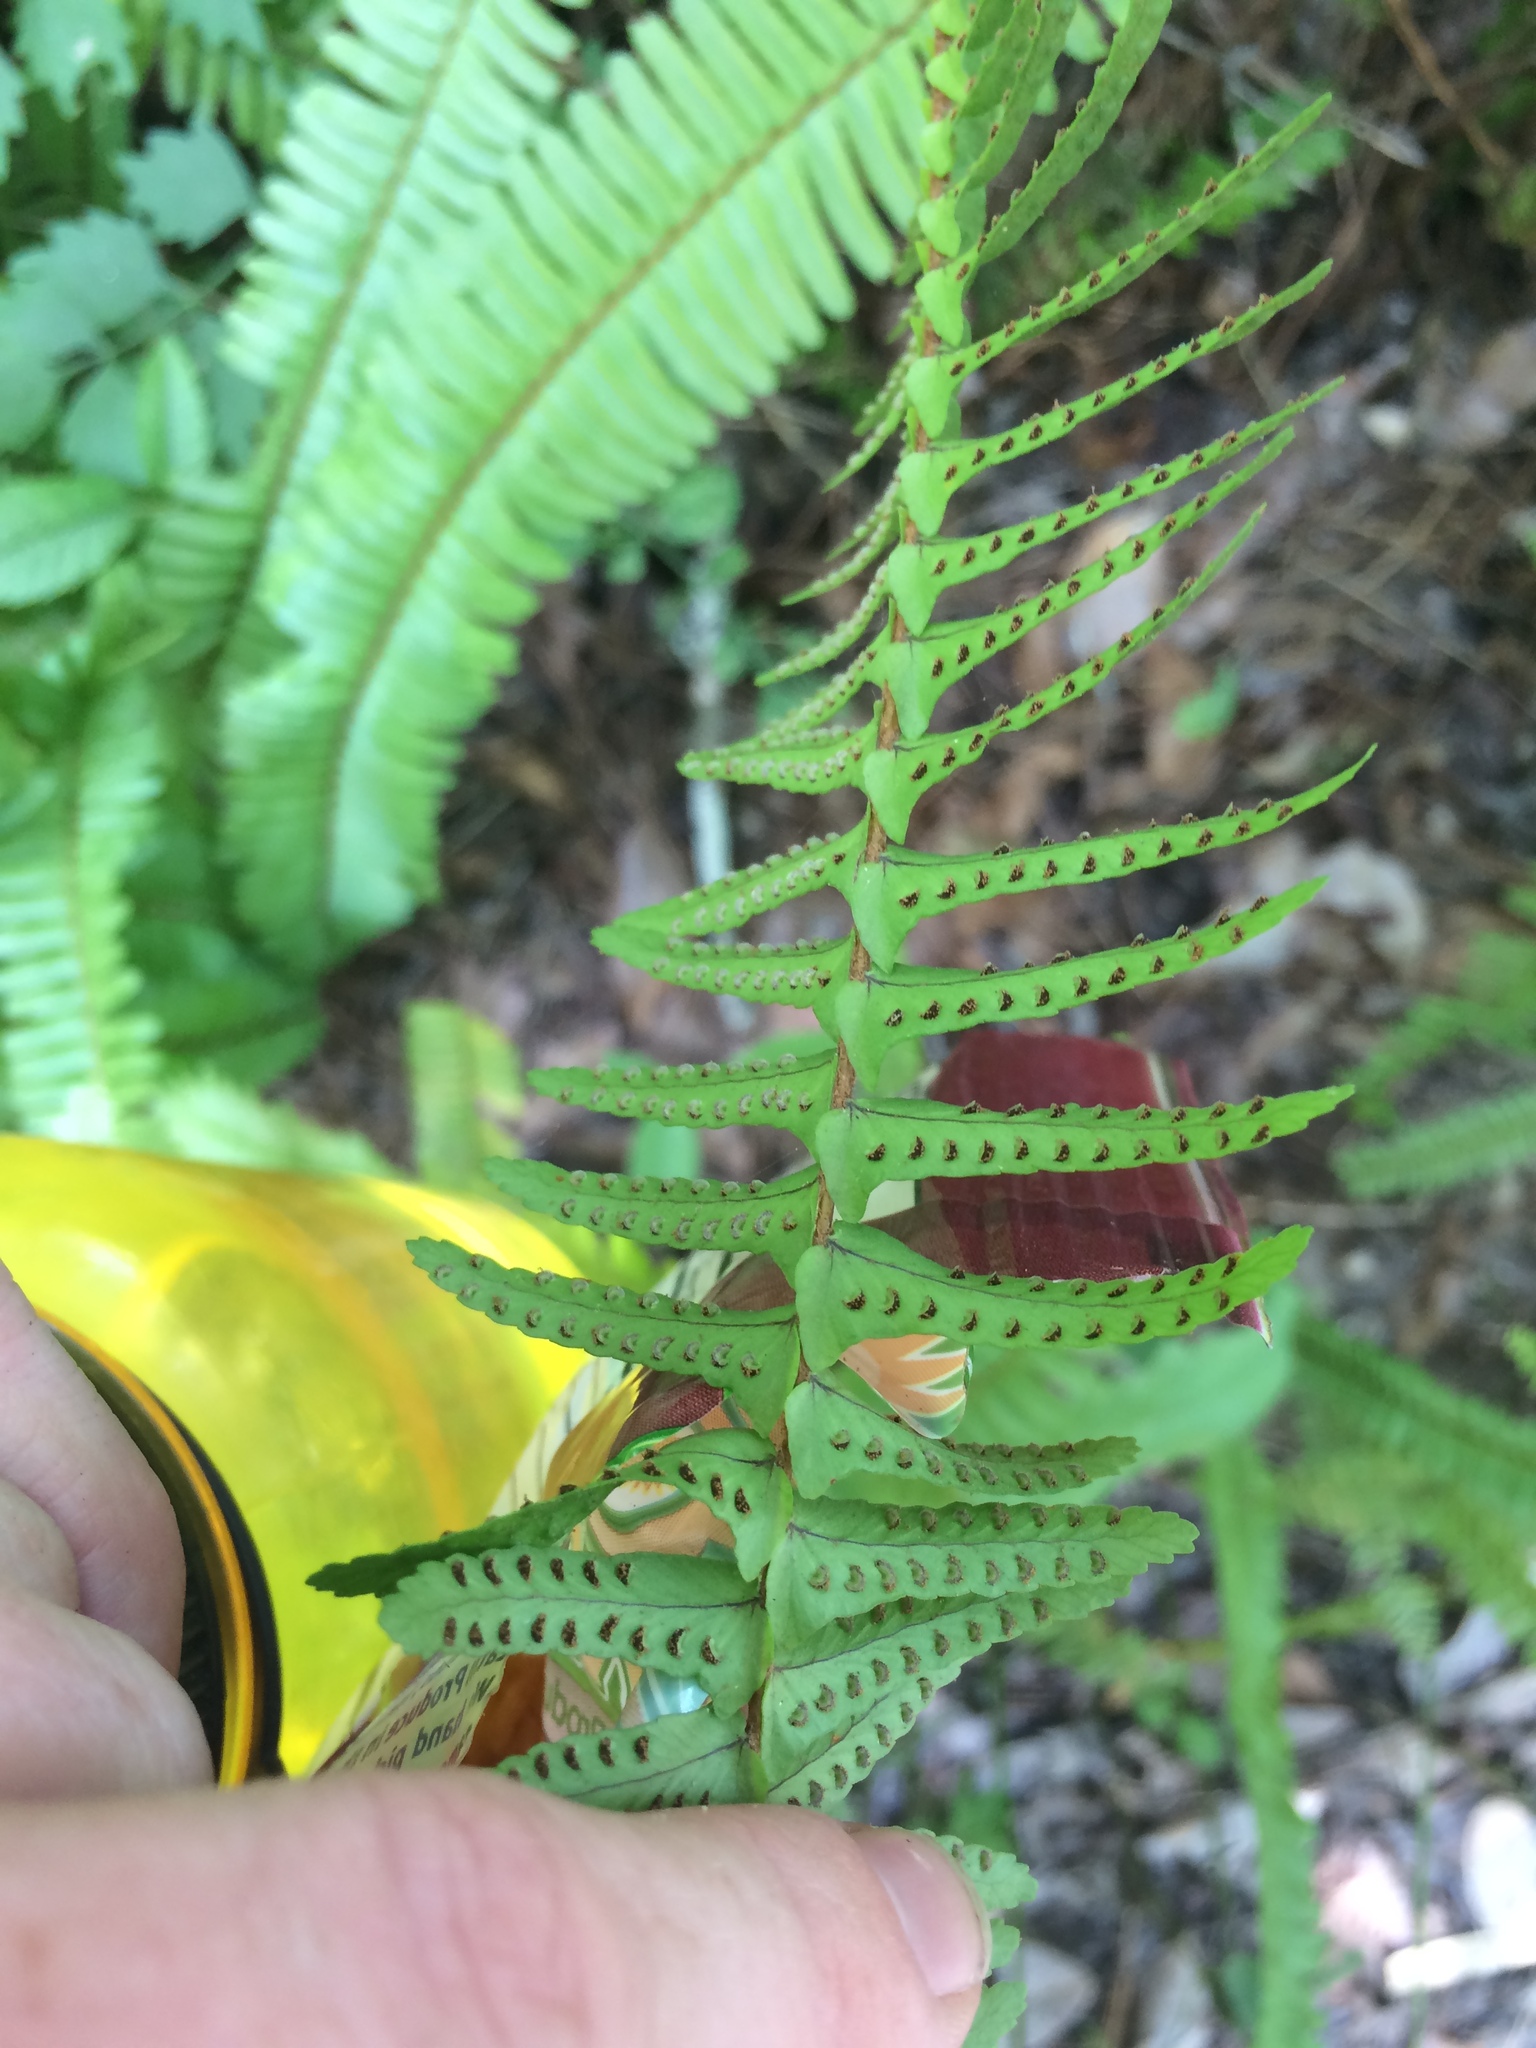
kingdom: Plantae
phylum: Tracheophyta
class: Polypodiopsida
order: Polypodiales
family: Nephrolepidaceae
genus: Nephrolepis
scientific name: Nephrolepis cordifolia
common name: Narrow swordfern
